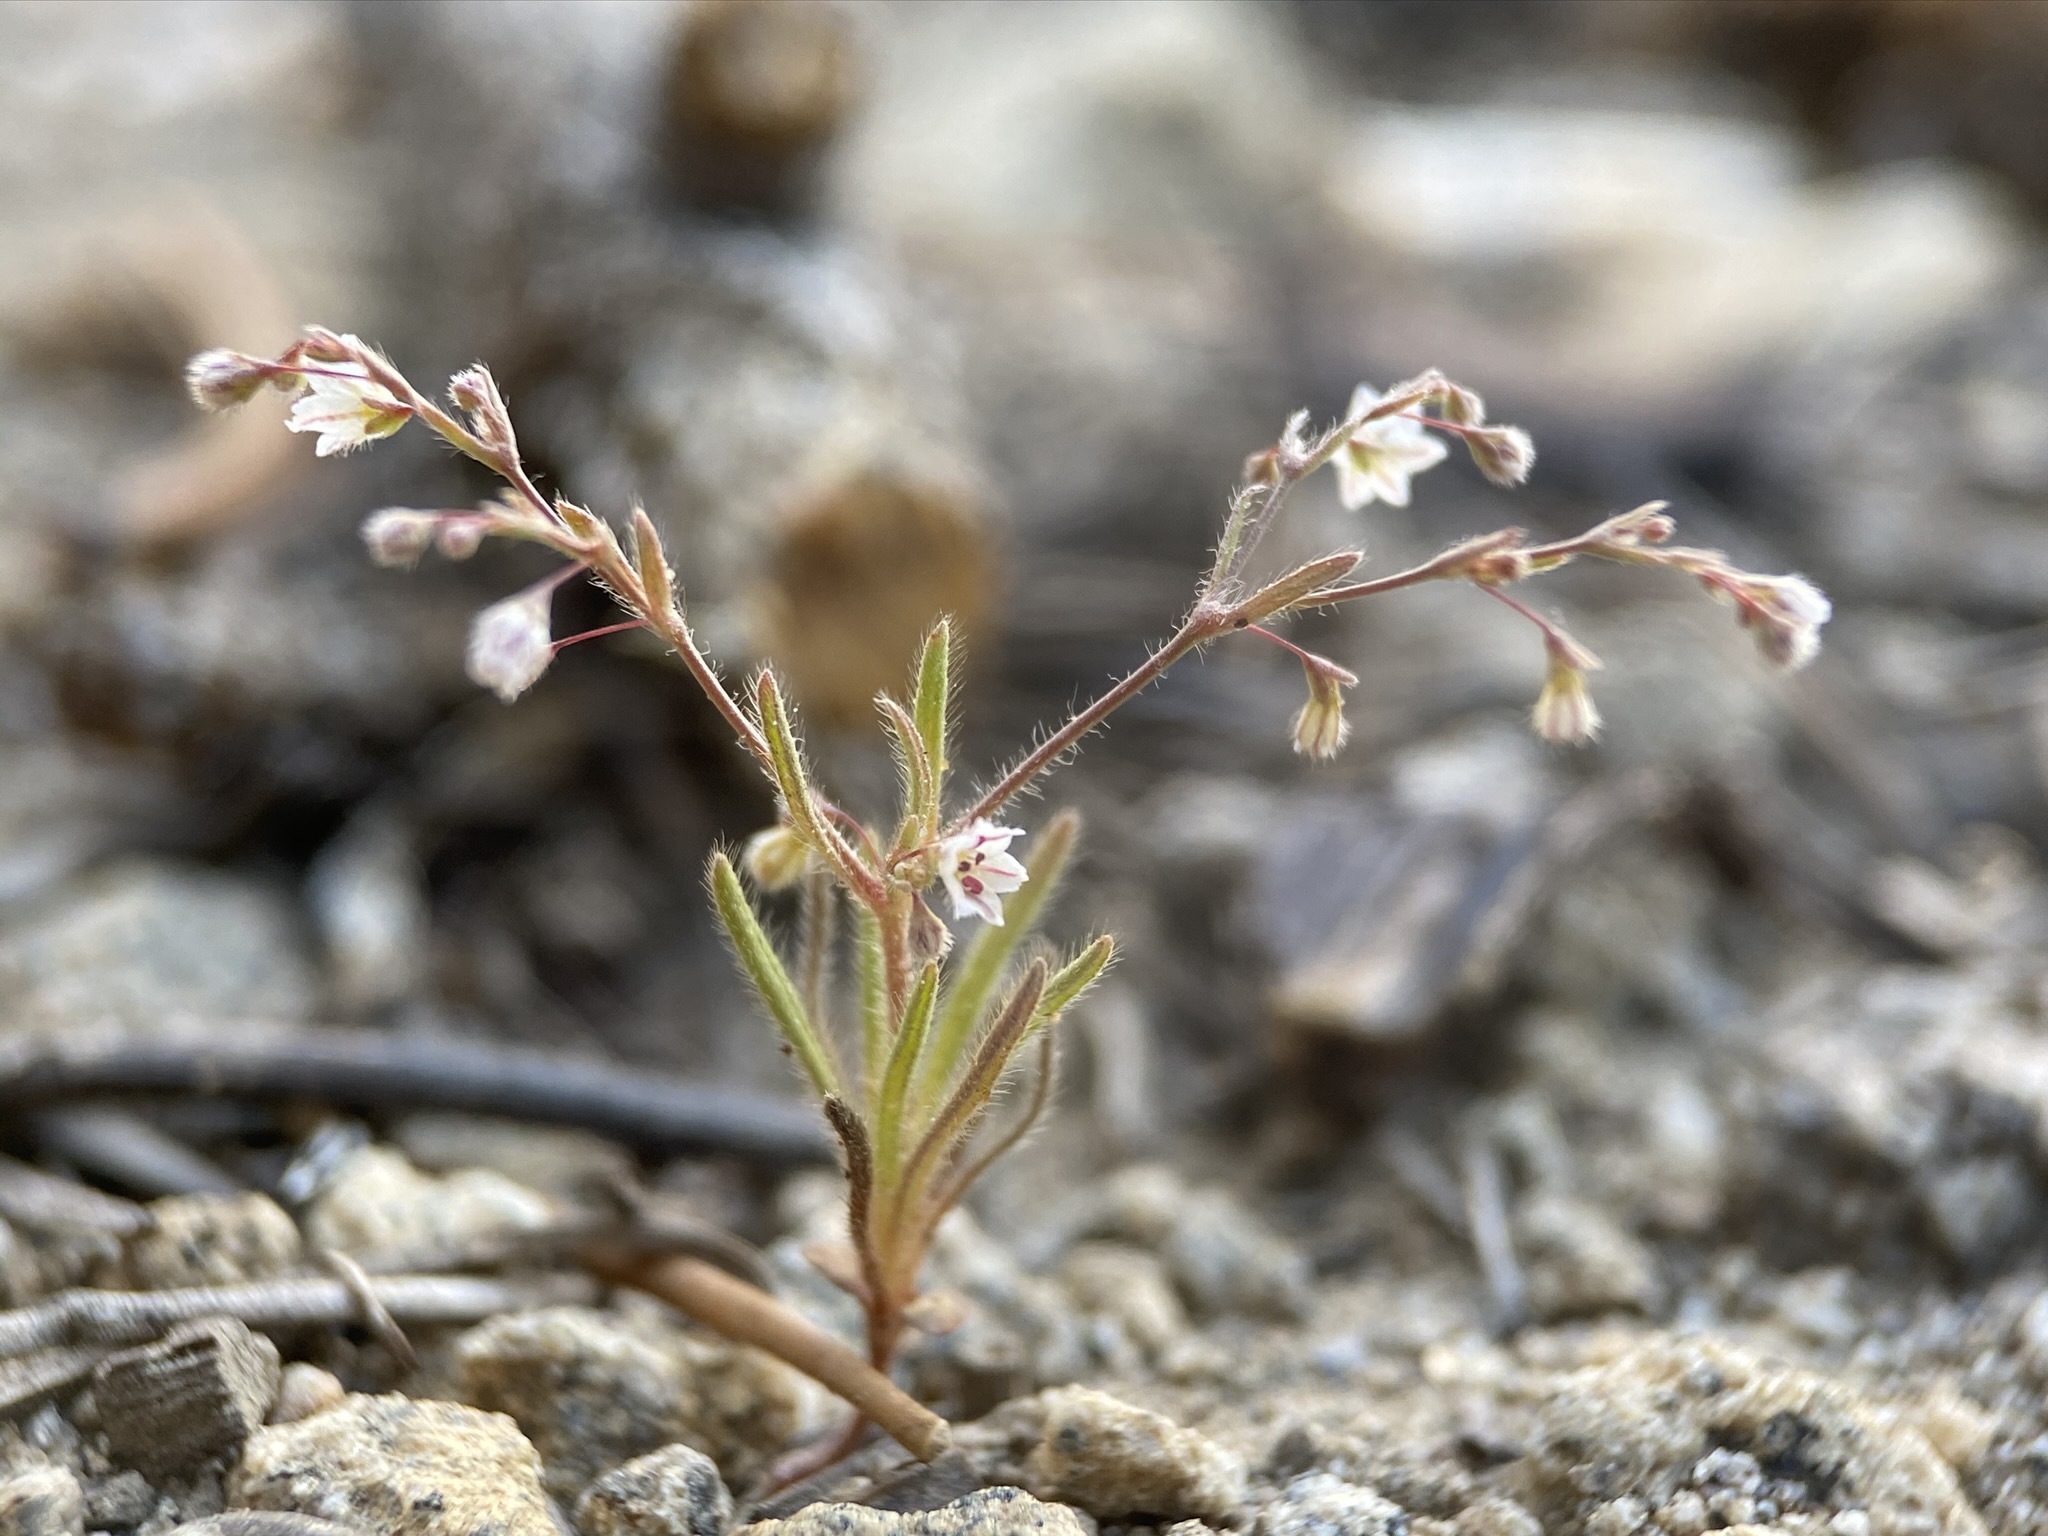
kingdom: Plantae
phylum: Tracheophyta
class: Magnoliopsida
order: Caryophyllales
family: Polygonaceae
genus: Eriogonum
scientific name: Eriogonum spergulinum
